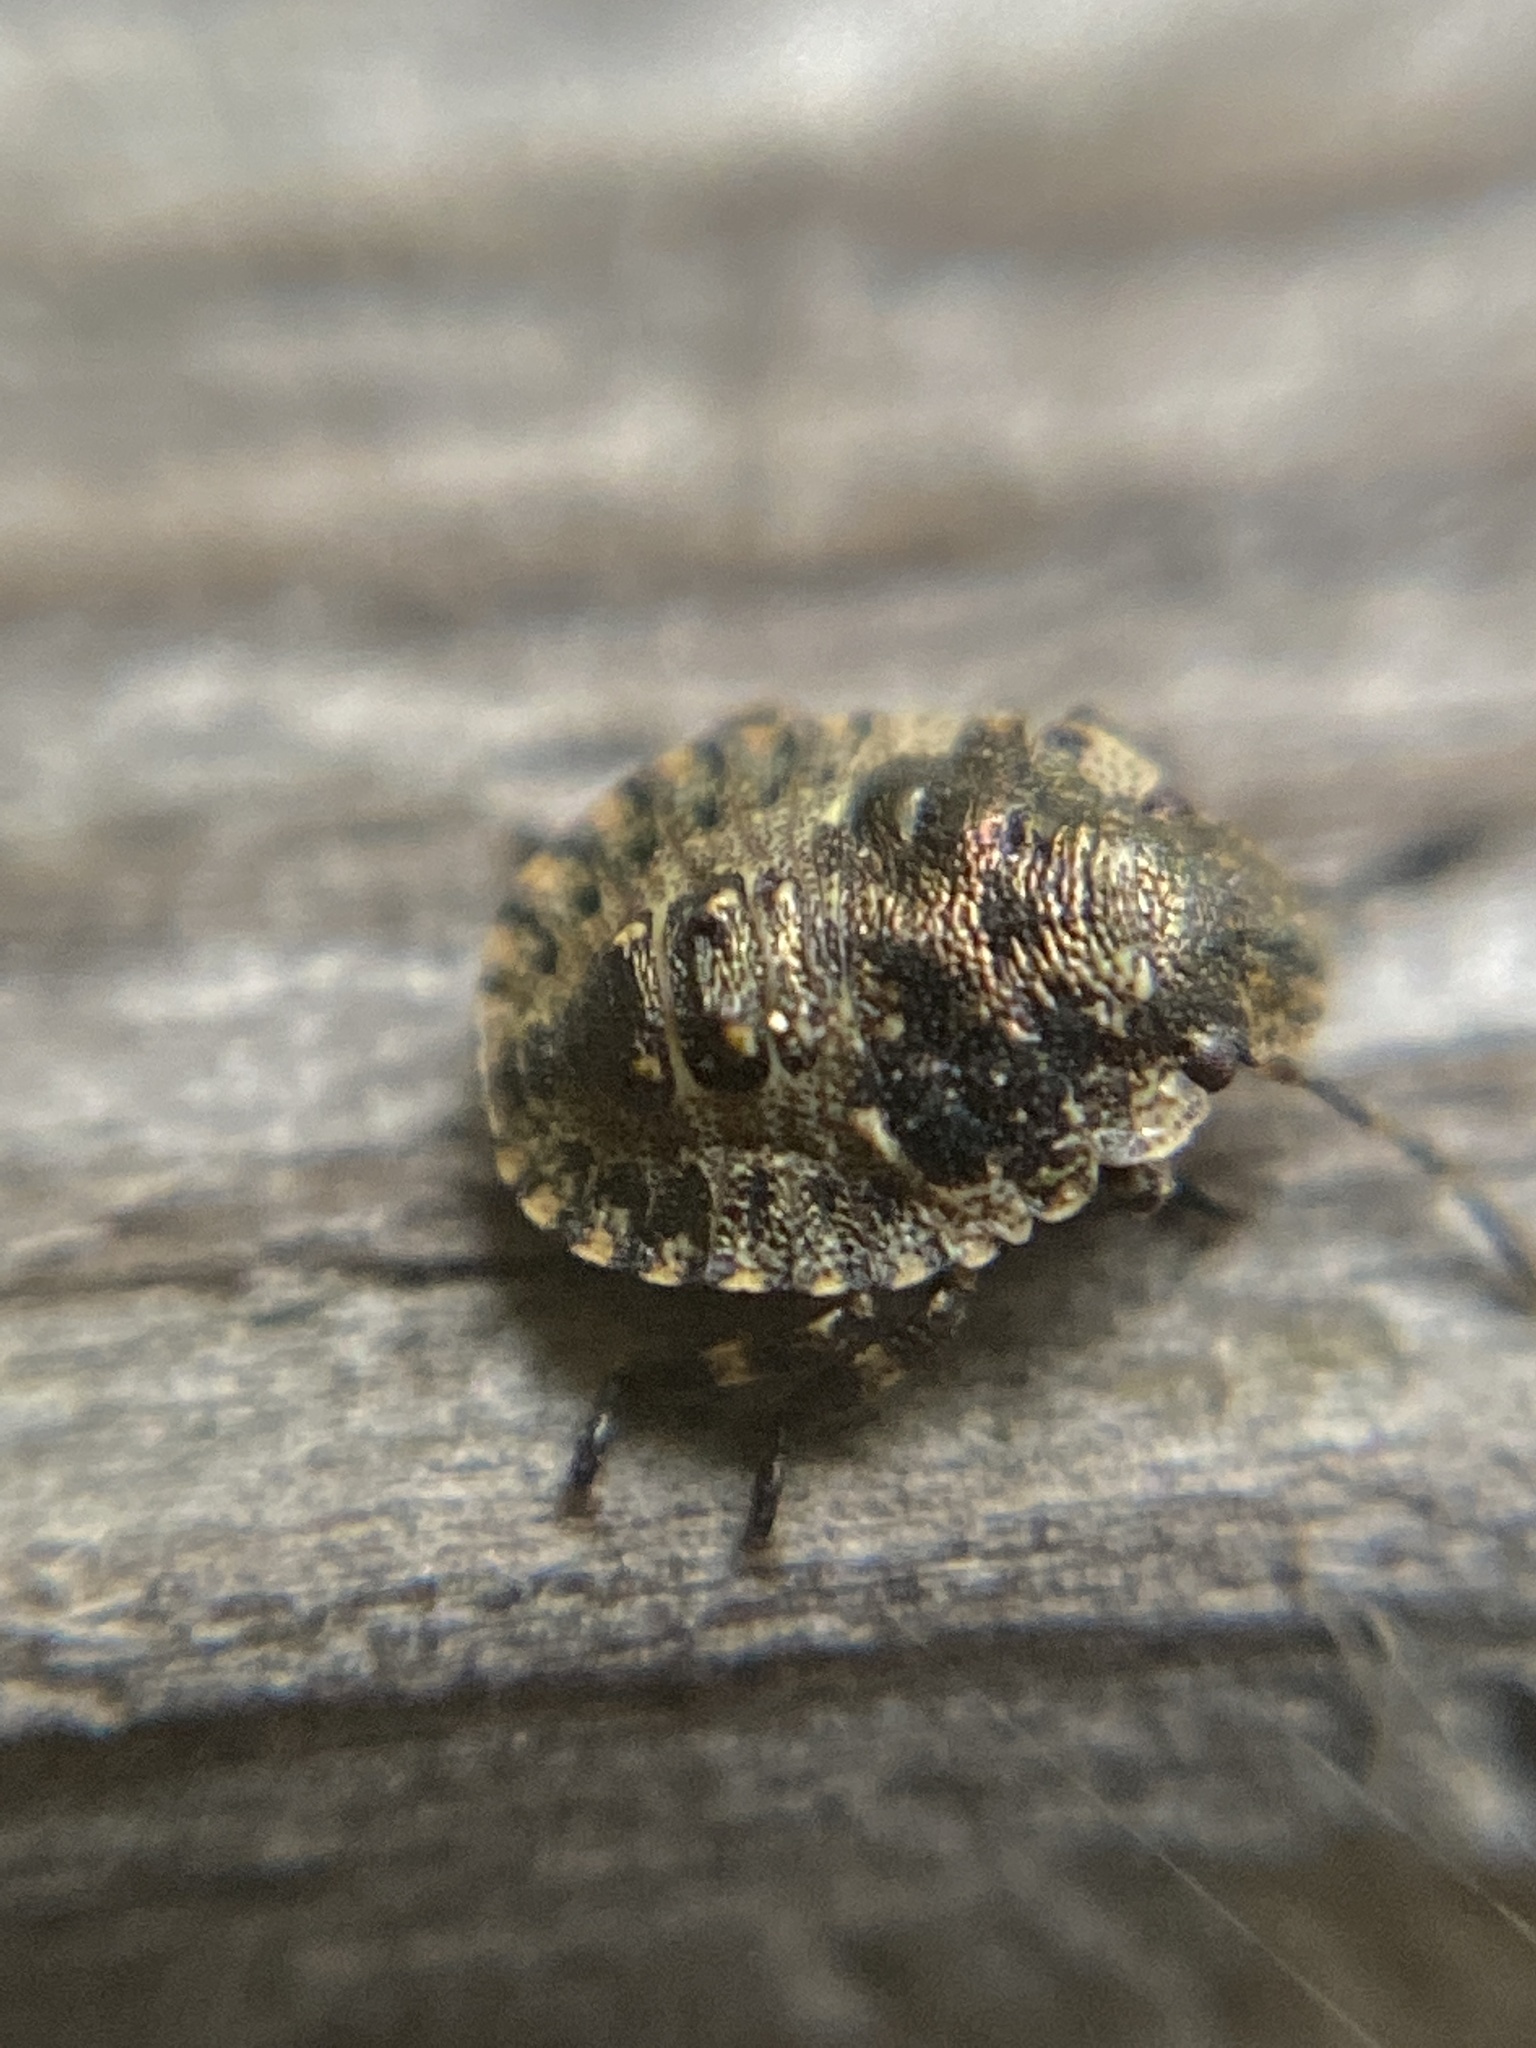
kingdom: Animalia
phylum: Arthropoda
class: Insecta
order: Hemiptera
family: Pentatomidae
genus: Pentatoma
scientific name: Pentatoma rufipes
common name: Forest bug
